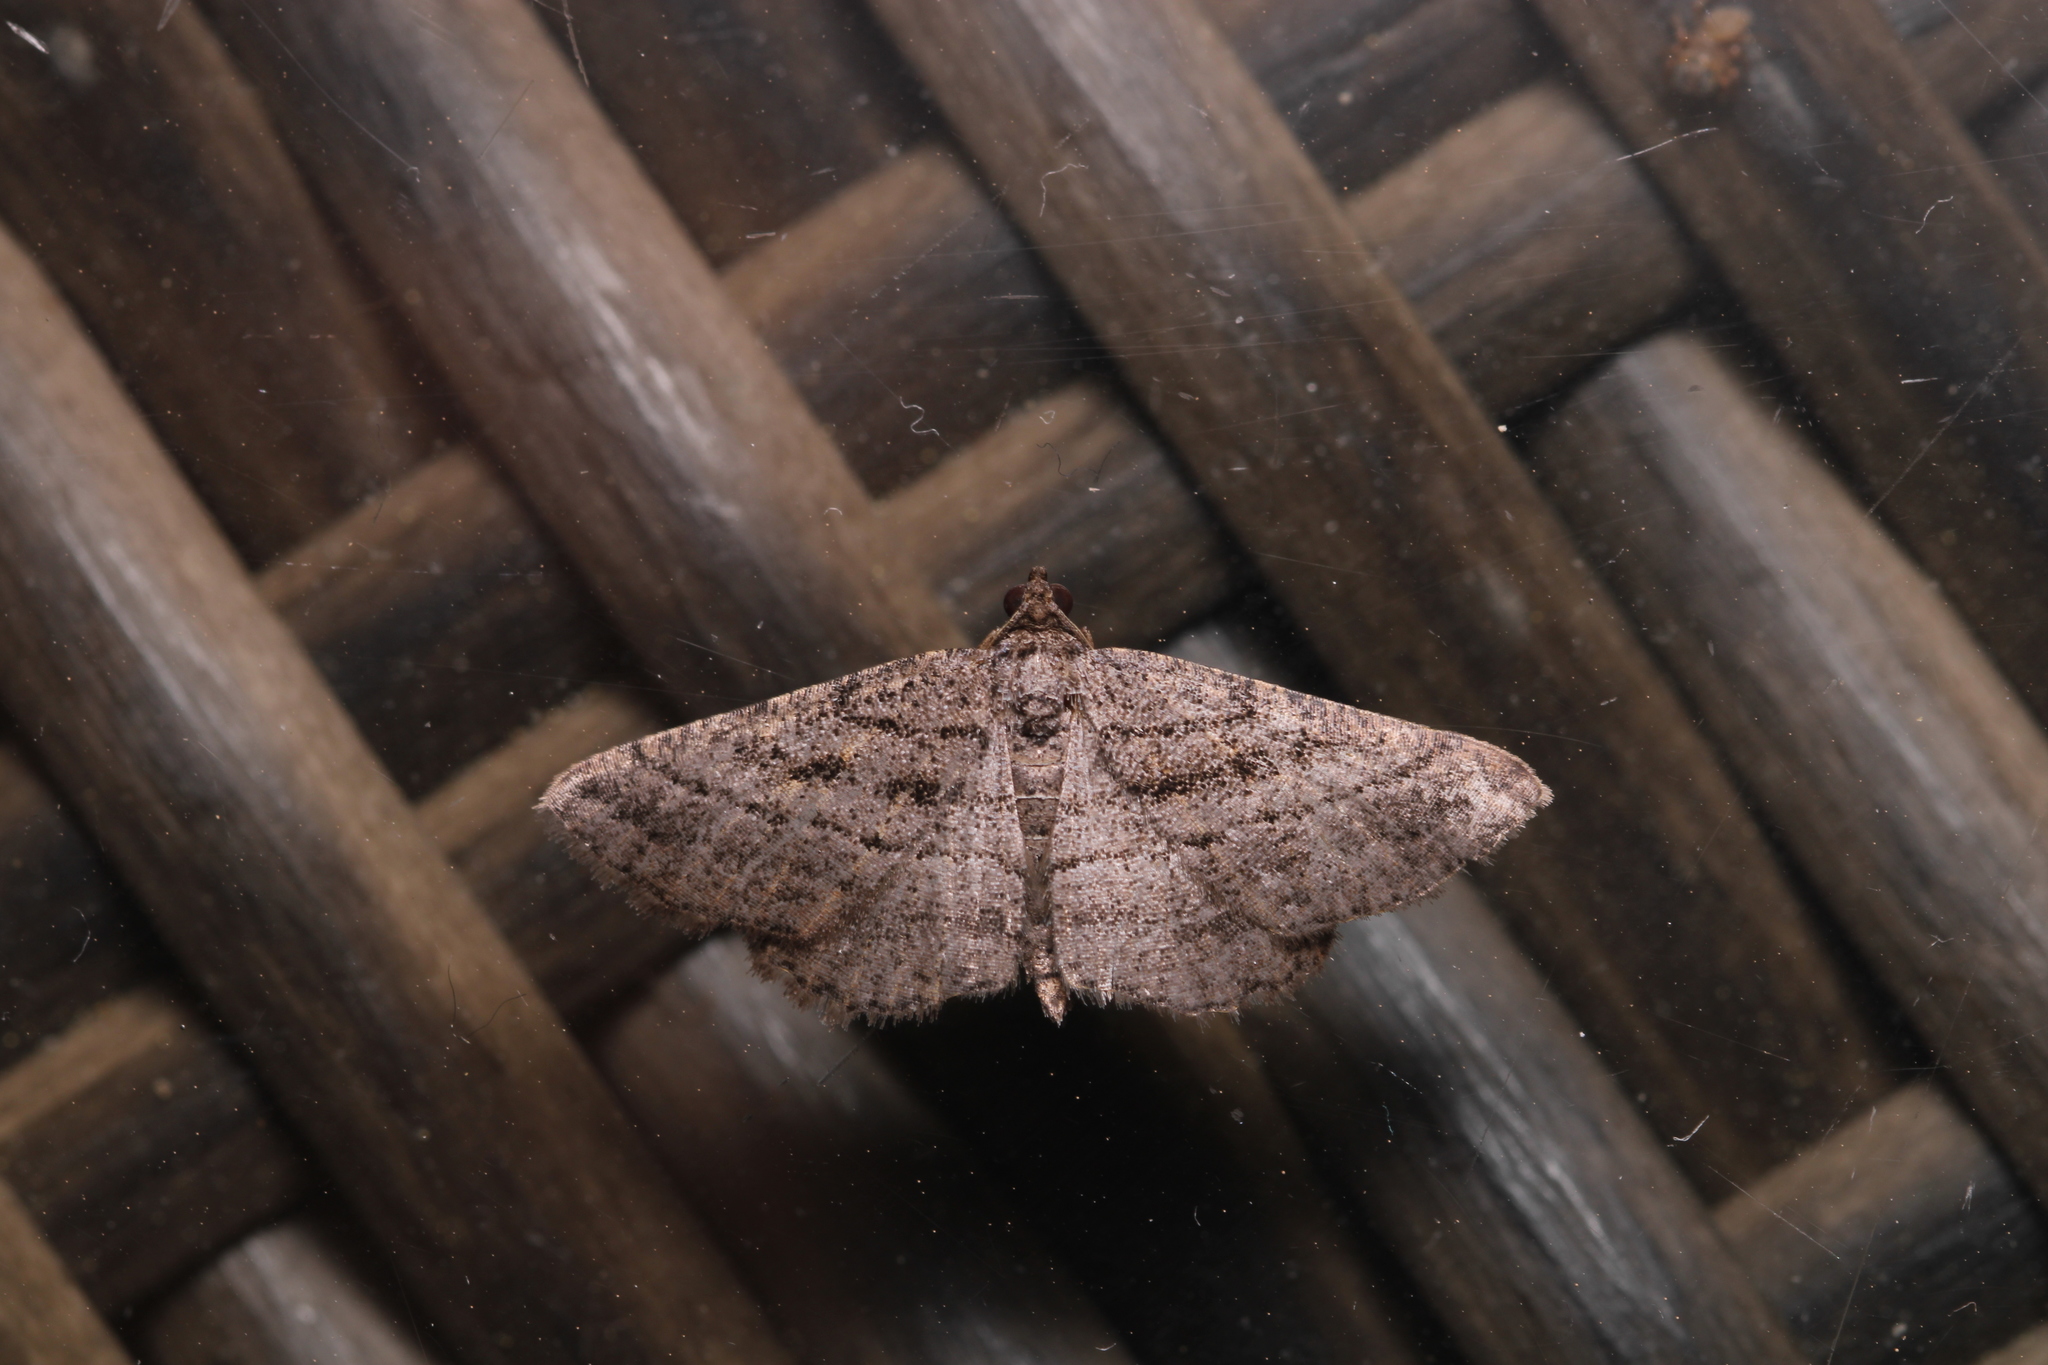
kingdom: Animalia
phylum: Arthropoda
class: Insecta
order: Lepidoptera
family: Geometridae
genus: Rhoptria
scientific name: Rhoptria asperaria
